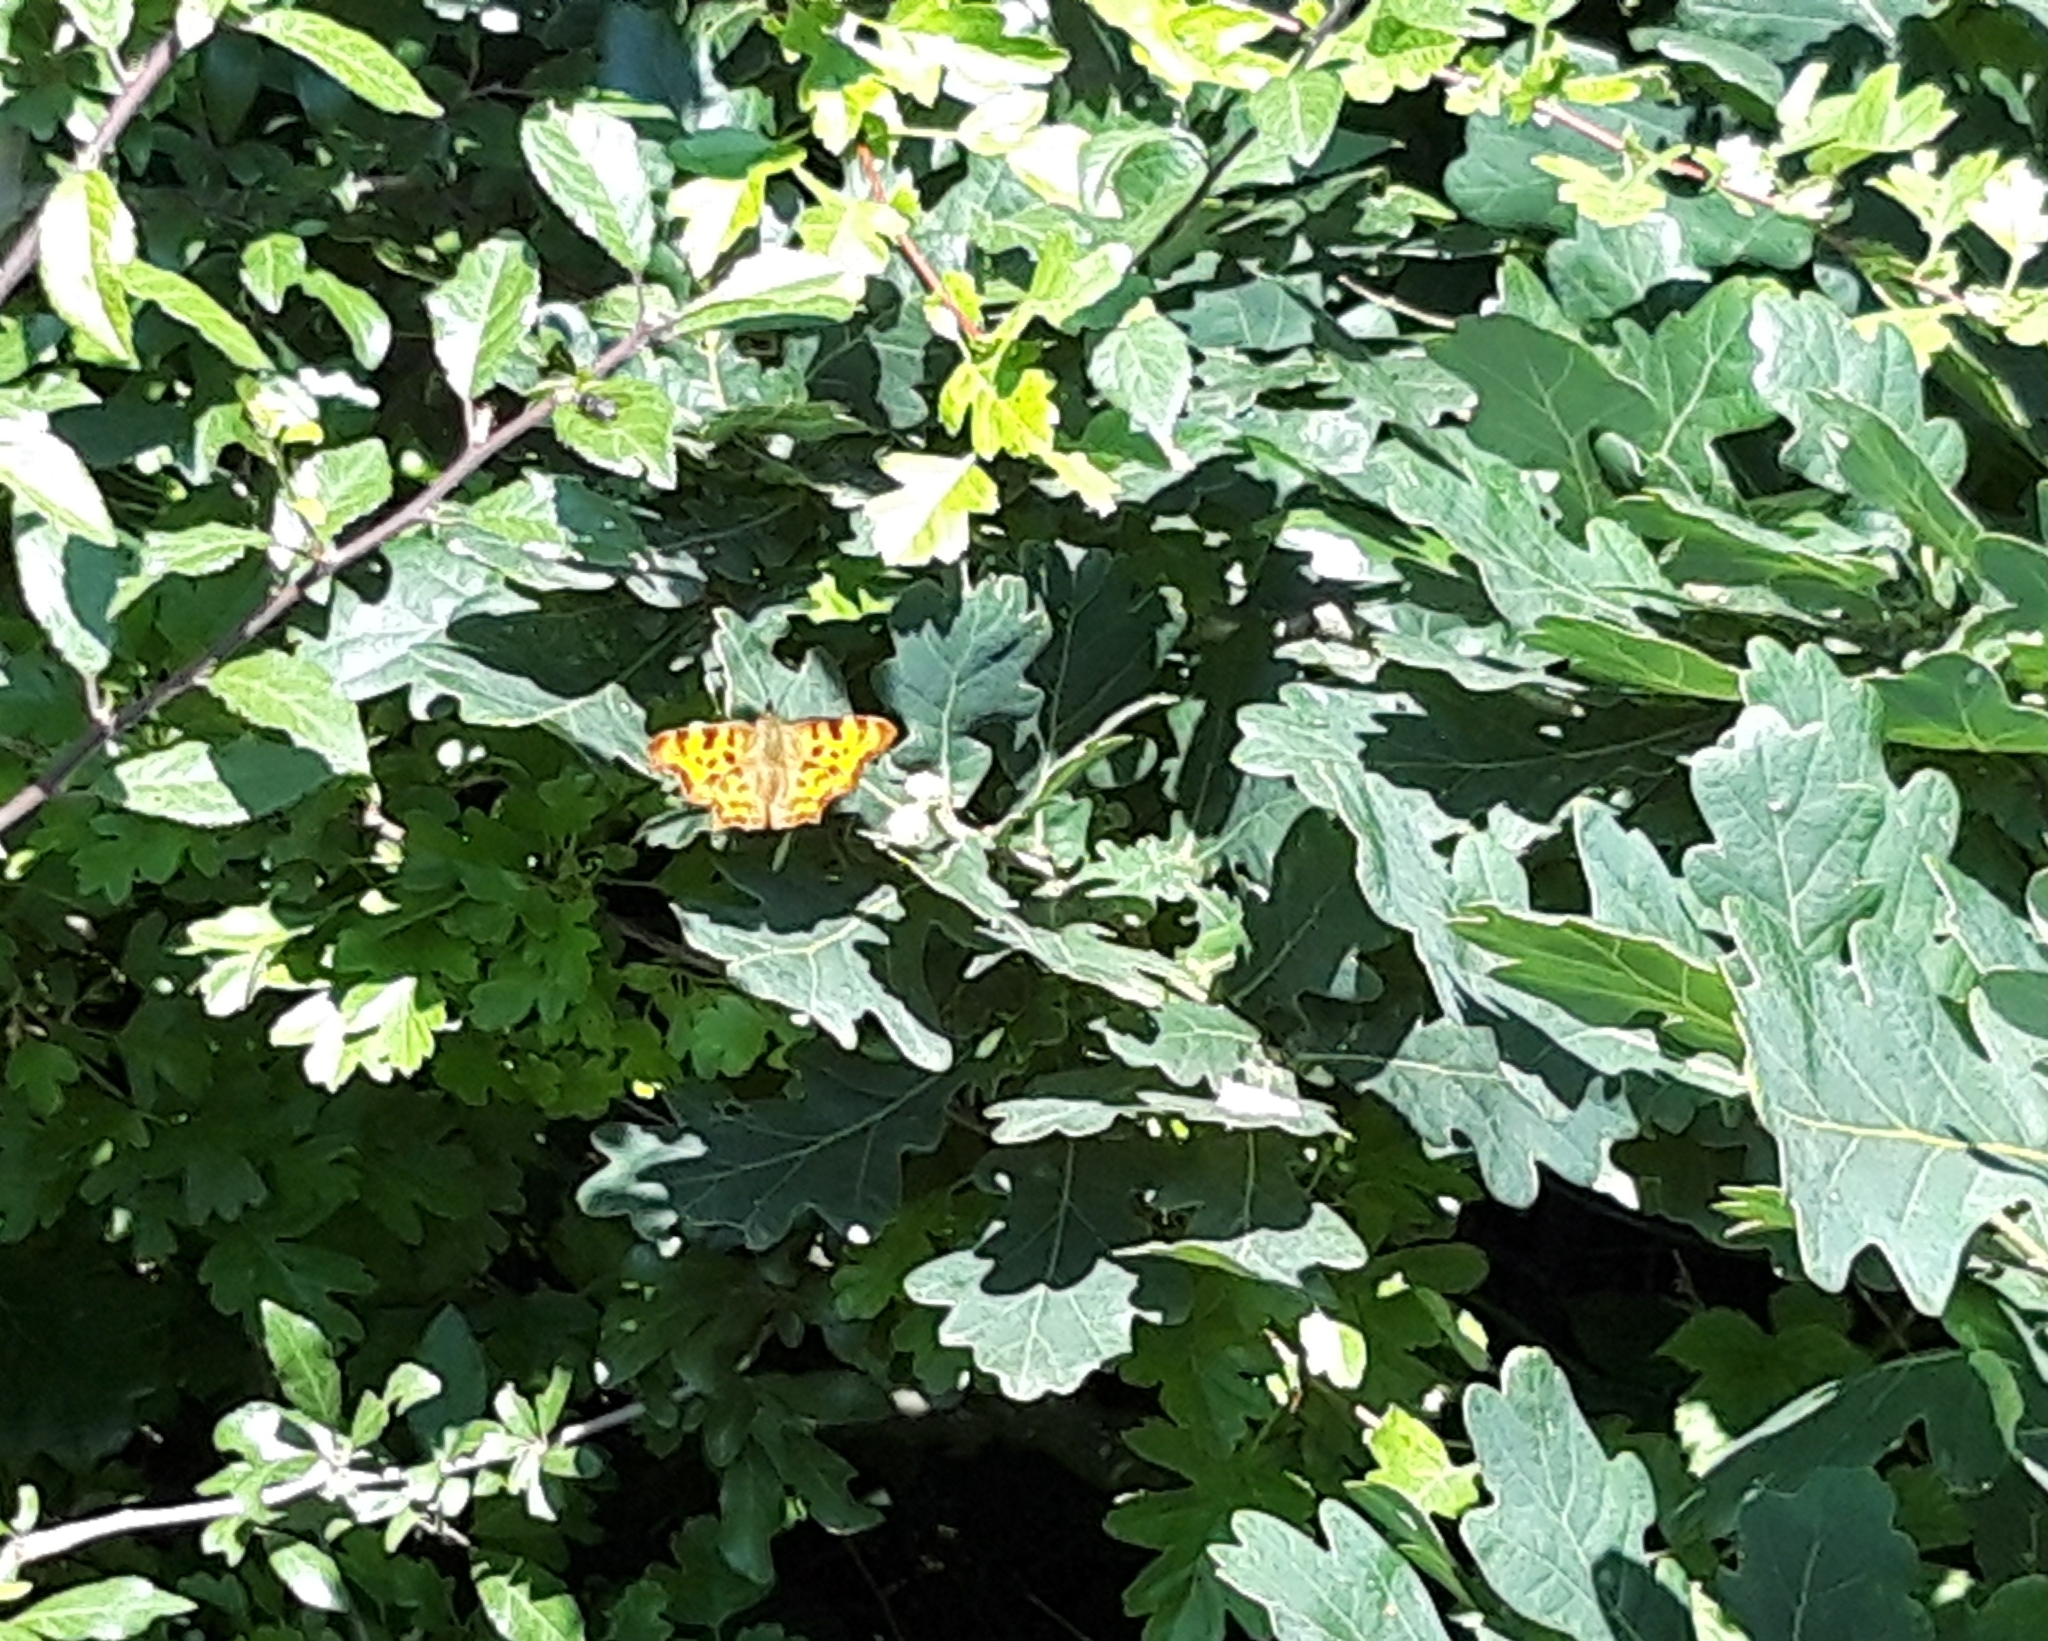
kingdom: Animalia
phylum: Arthropoda
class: Insecta
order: Lepidoptera
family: Nymphalidae
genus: Polygonia
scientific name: Polygonia c-album
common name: Comma
